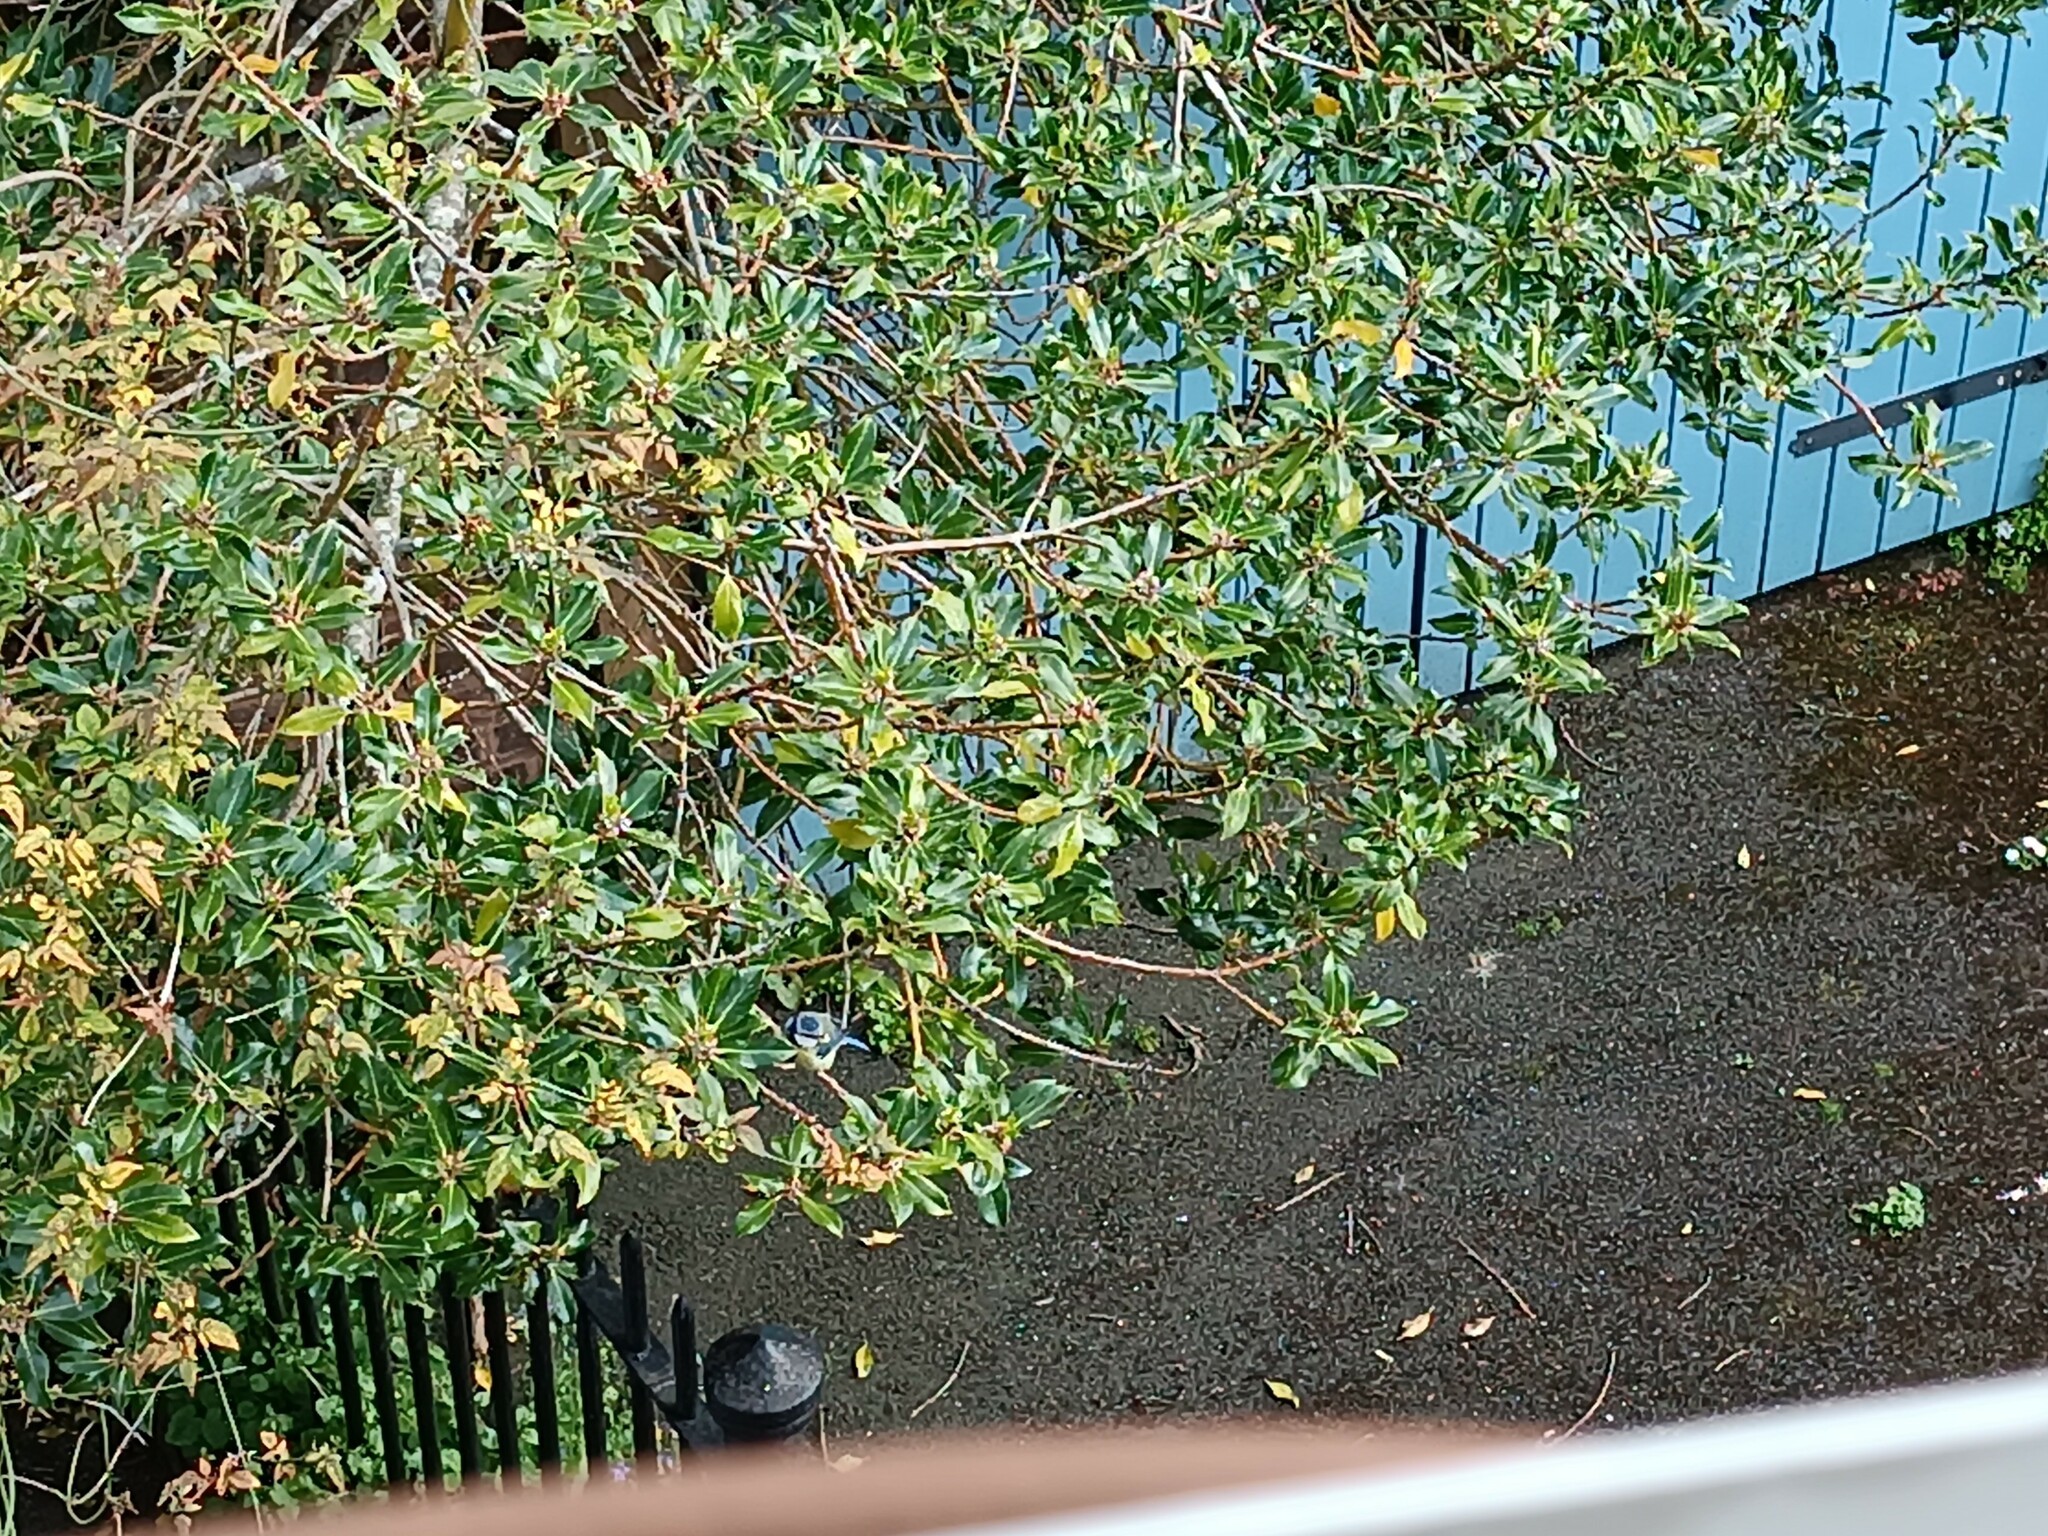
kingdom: Animalia
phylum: Chordata
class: Aves
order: Passeriformes
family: Paridae
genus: Cyanistes
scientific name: Cyanistes caeruleus
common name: Eurasian blue tit
